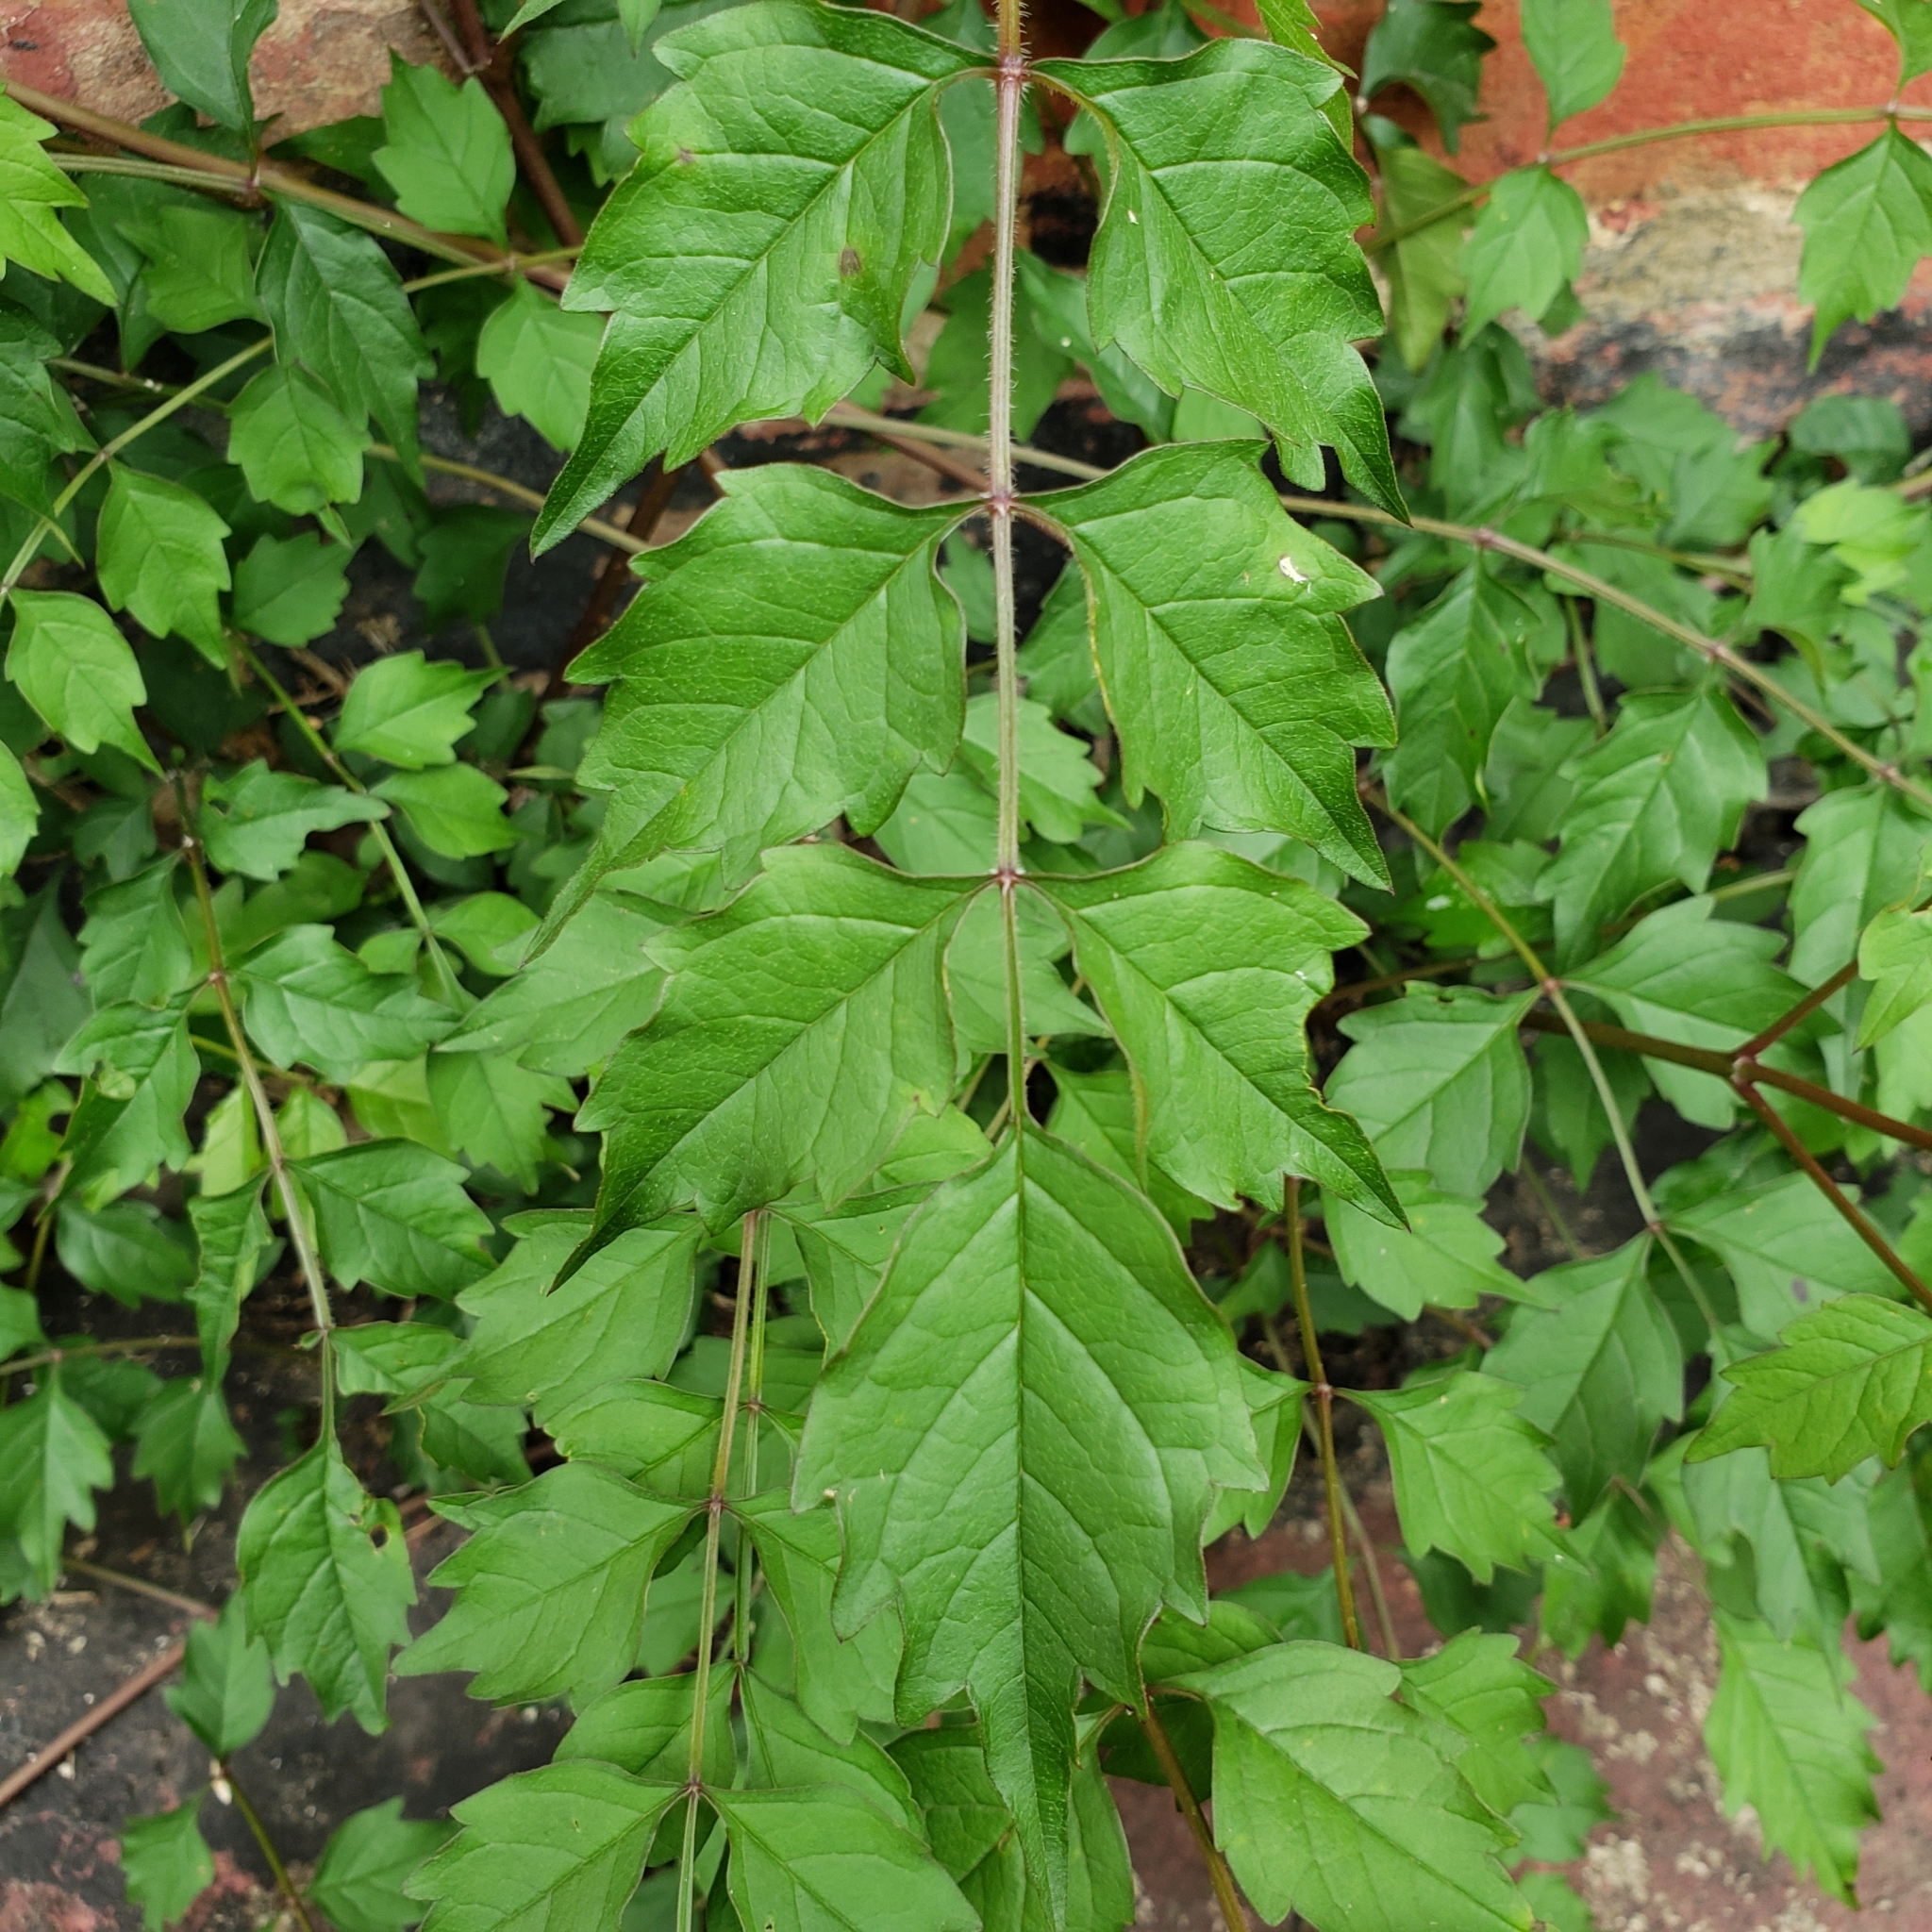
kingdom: Plantae
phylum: Tracheophyta
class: Magnoliopsida
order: Lamiales
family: Bignoniaceae
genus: Campsis
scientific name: Campsis radicans
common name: Trumpet-creeper
